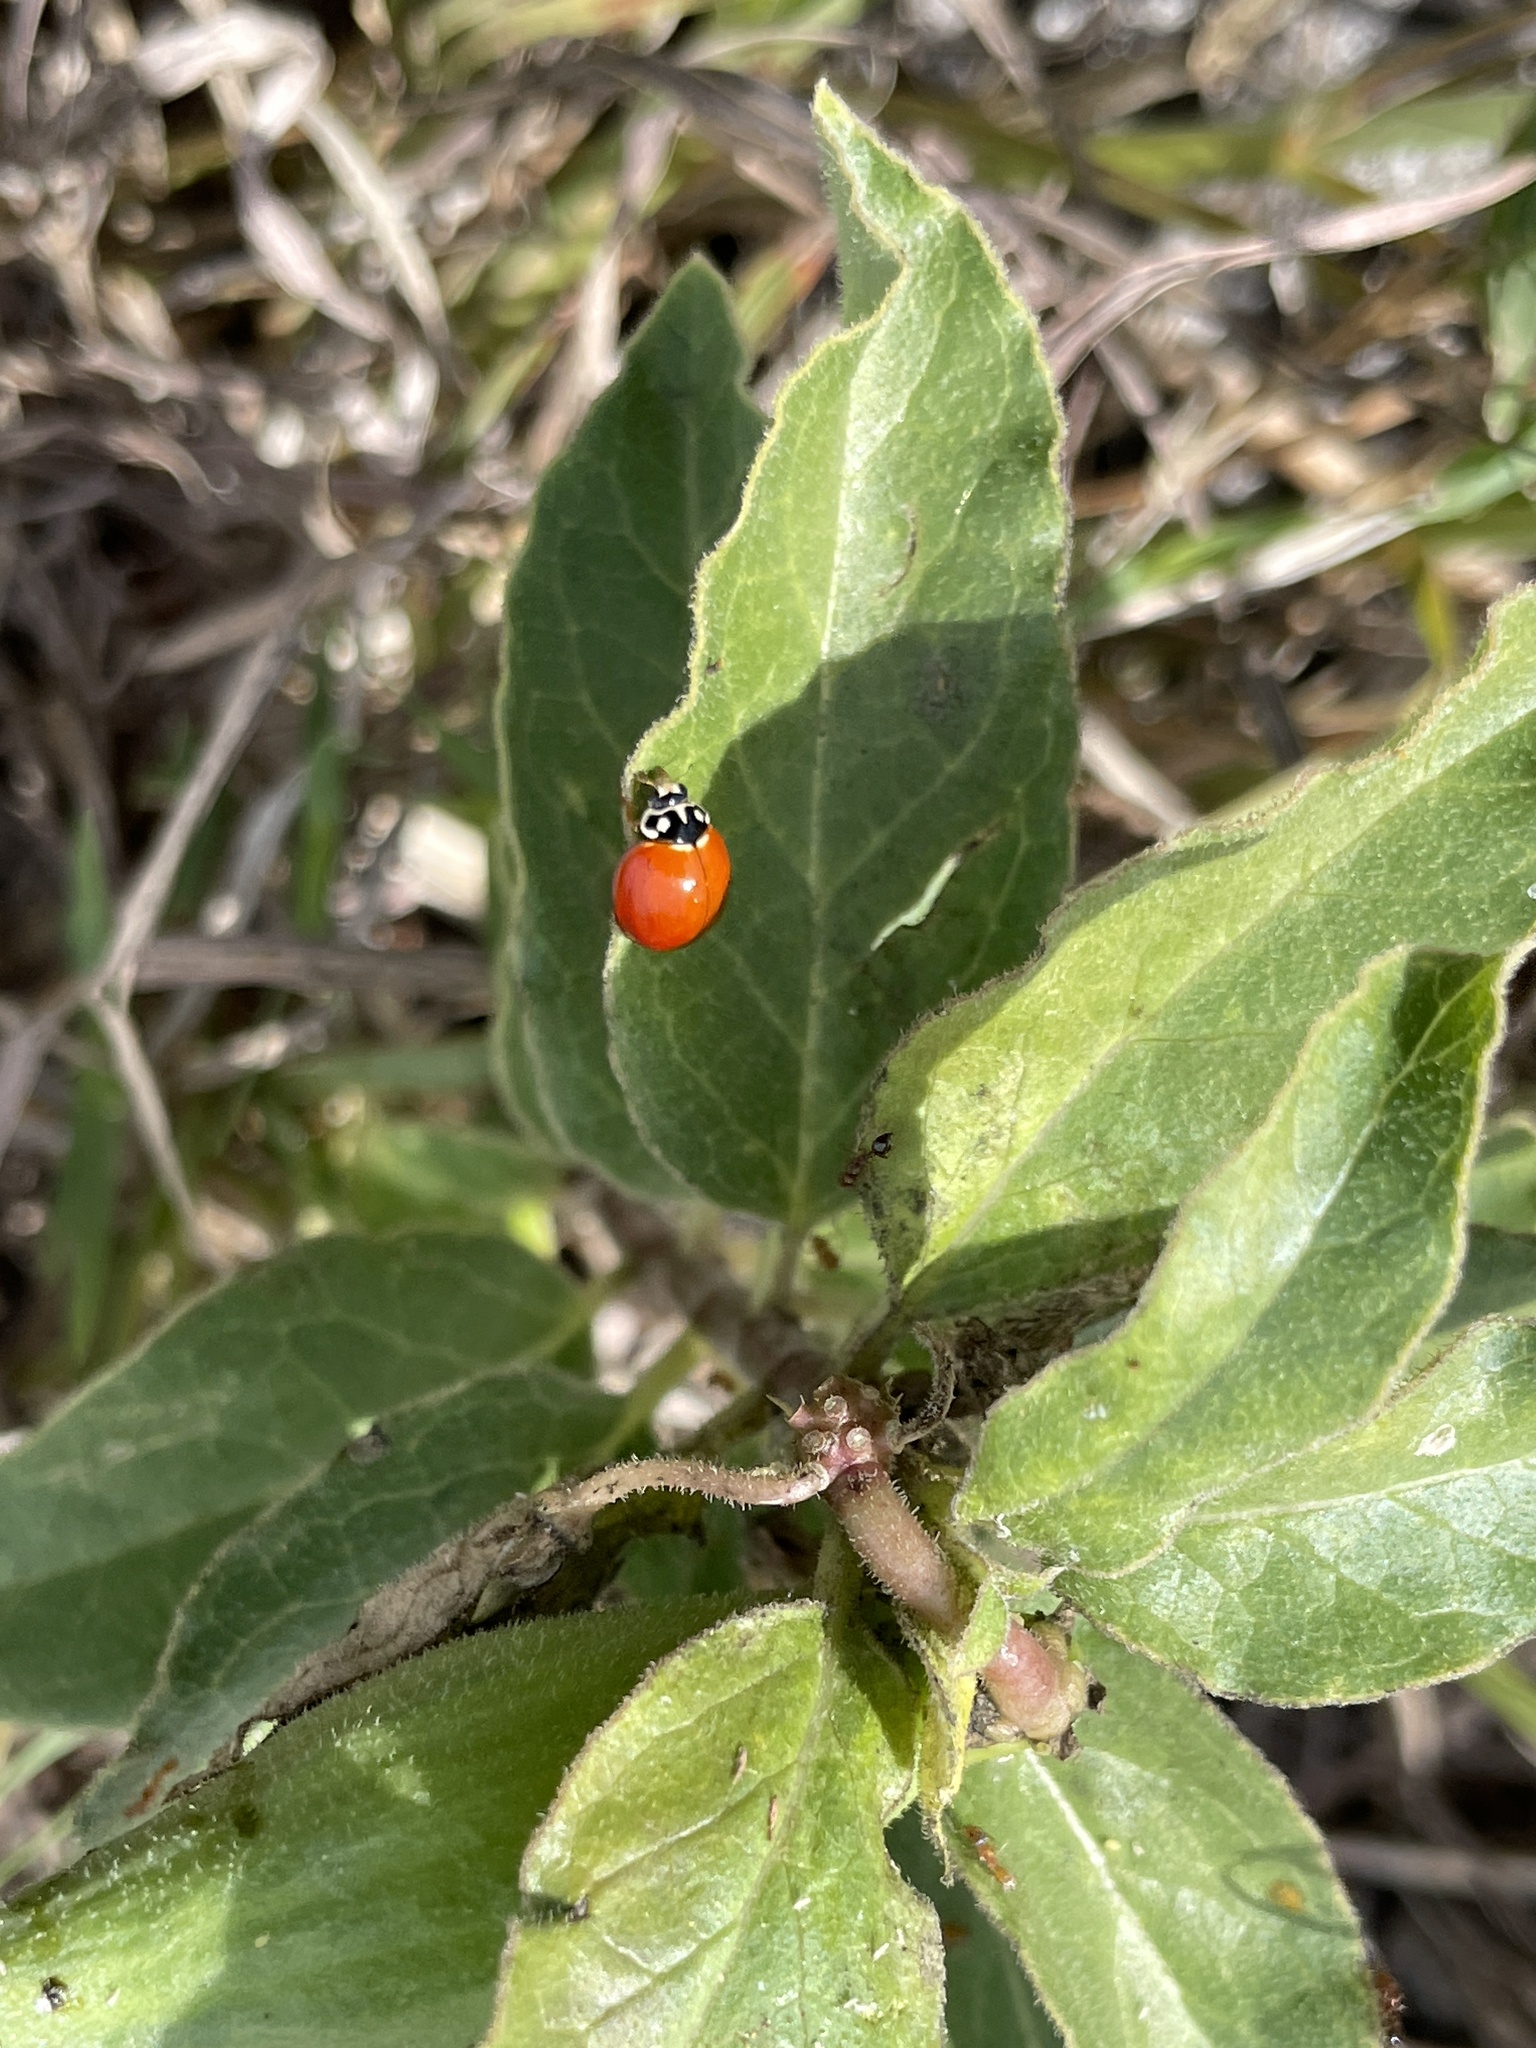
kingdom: Animalia
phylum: Arthropoda
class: Insecta
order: Coleoptera
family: Coccinellidae
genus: Cycloneda
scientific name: Cycloneda sanguinea
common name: Ladybird beetle
